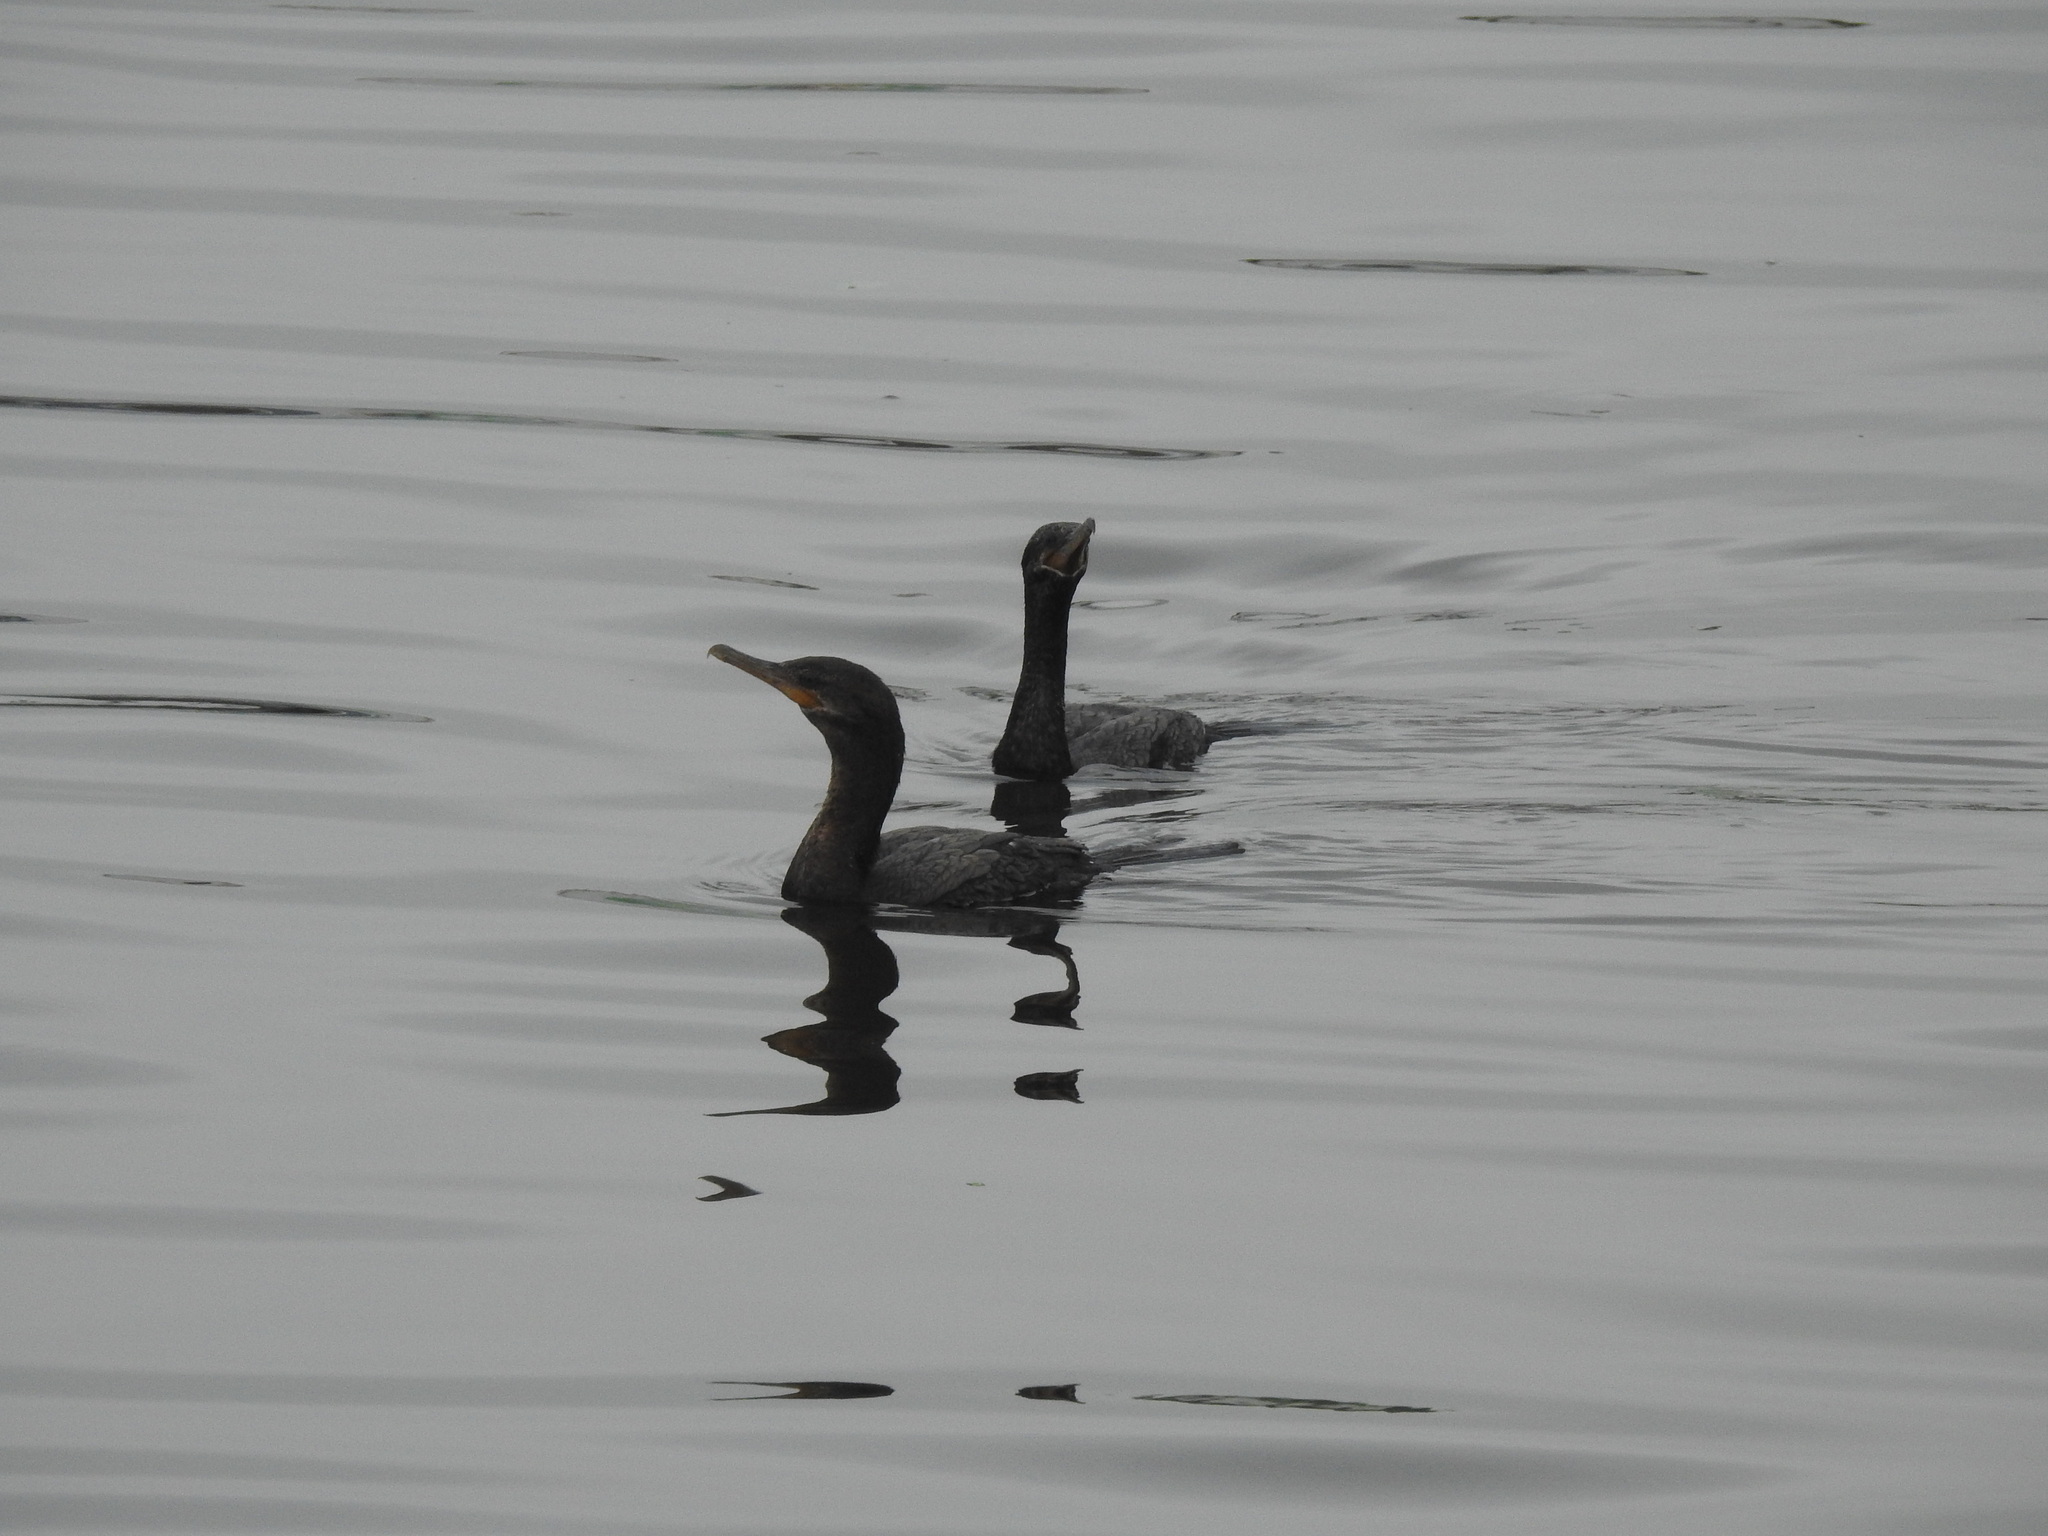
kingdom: Animalia
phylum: Chordata
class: Aves
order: Suliformes
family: Phalacrocoracidae
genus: Phalacrocorax
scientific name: Phalacrocorax brasilianus
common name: Neotropic cormorant
